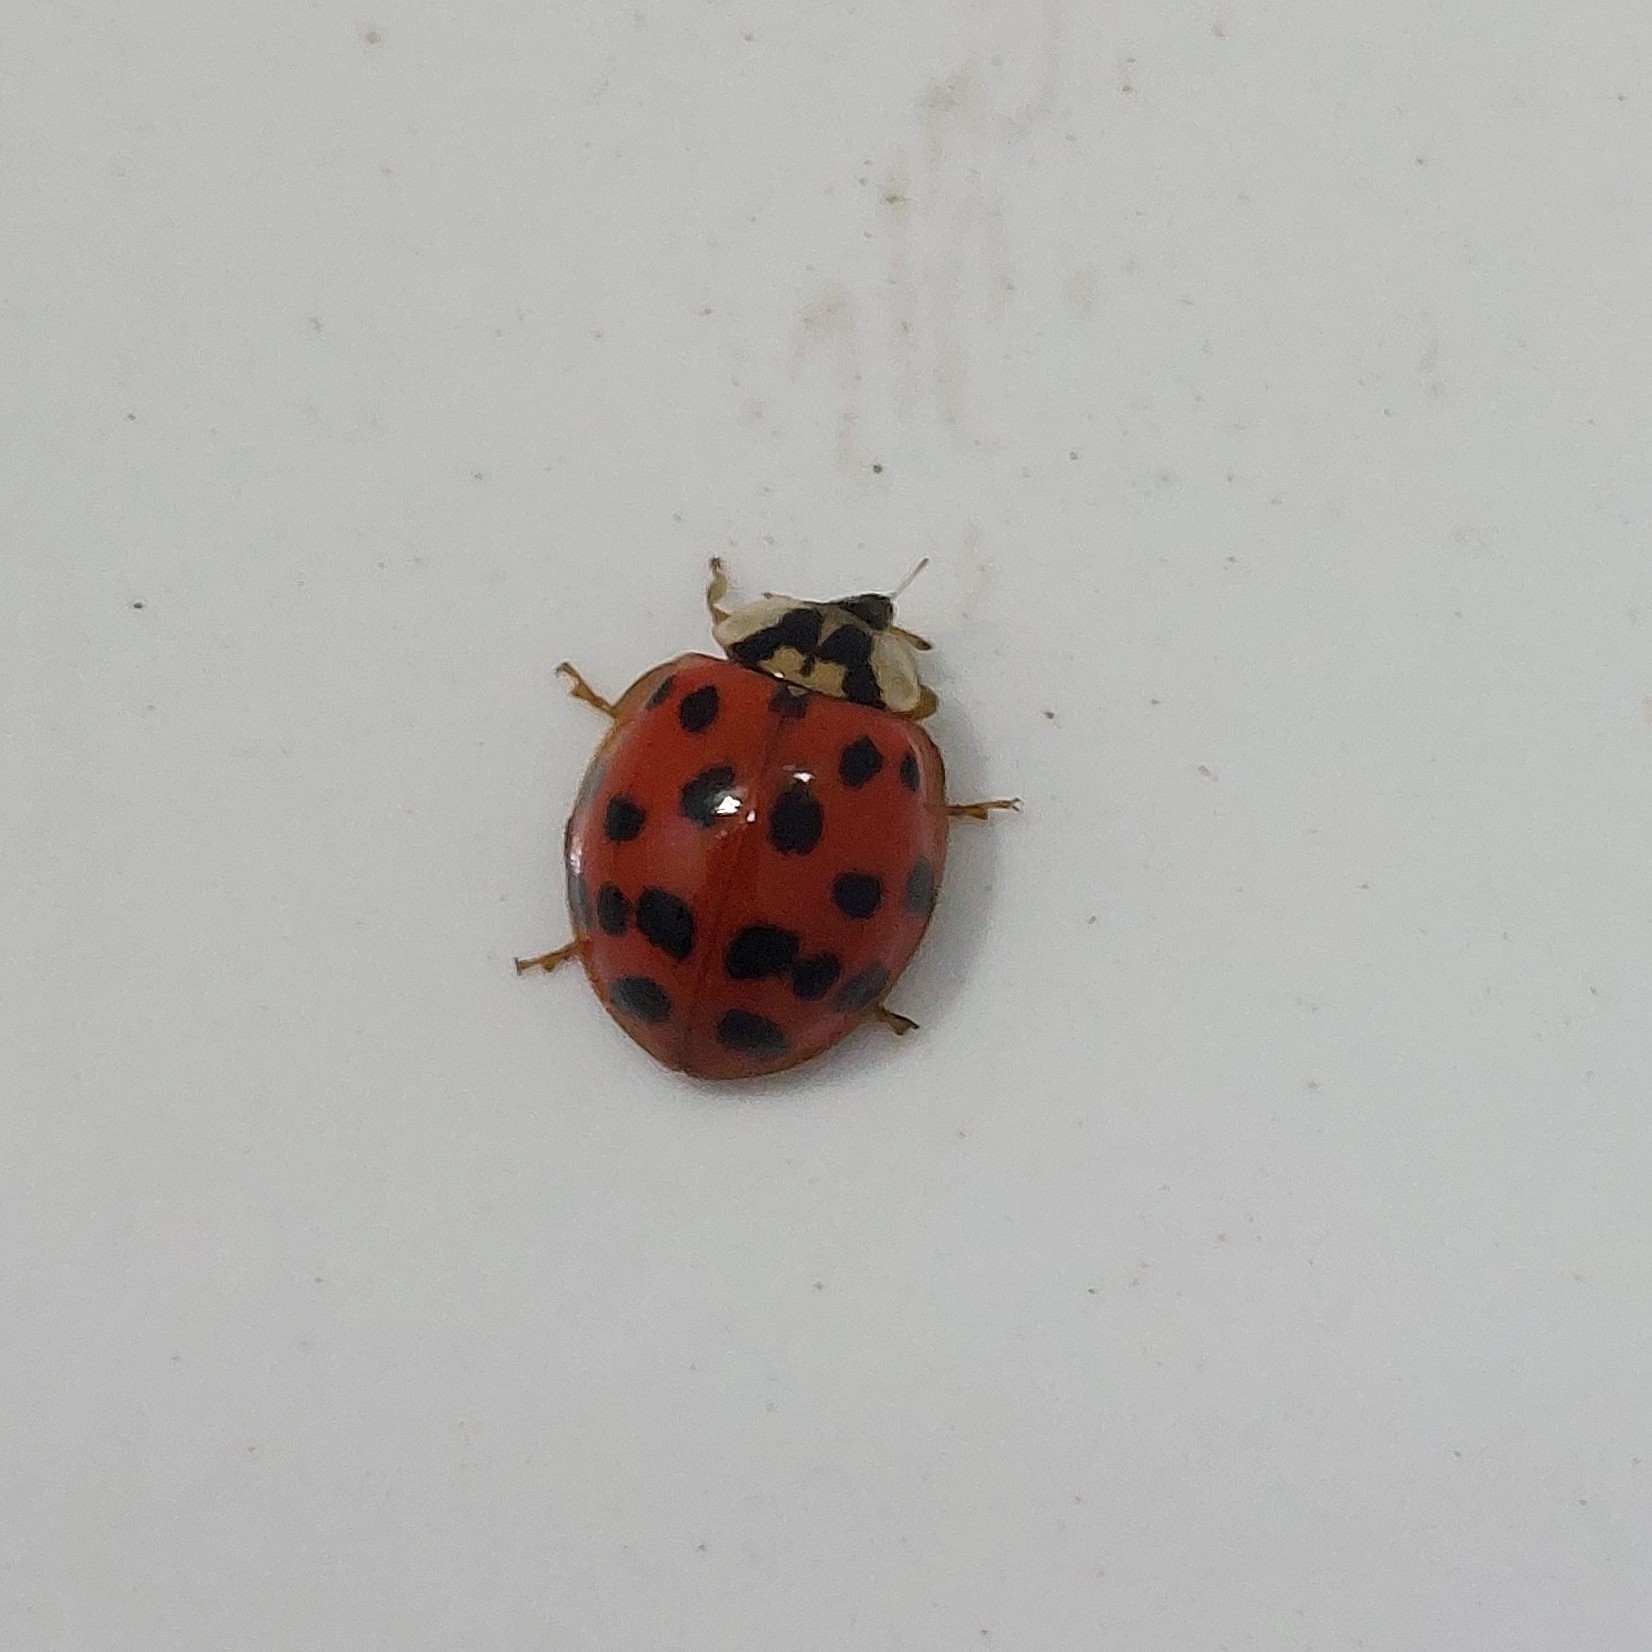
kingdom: Animalia
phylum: Arthropoda
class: Insecta
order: Coleoptera
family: Coccinellidae
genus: Harmonia
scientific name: Harmonia axyridis
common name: Harlequin ladybird
